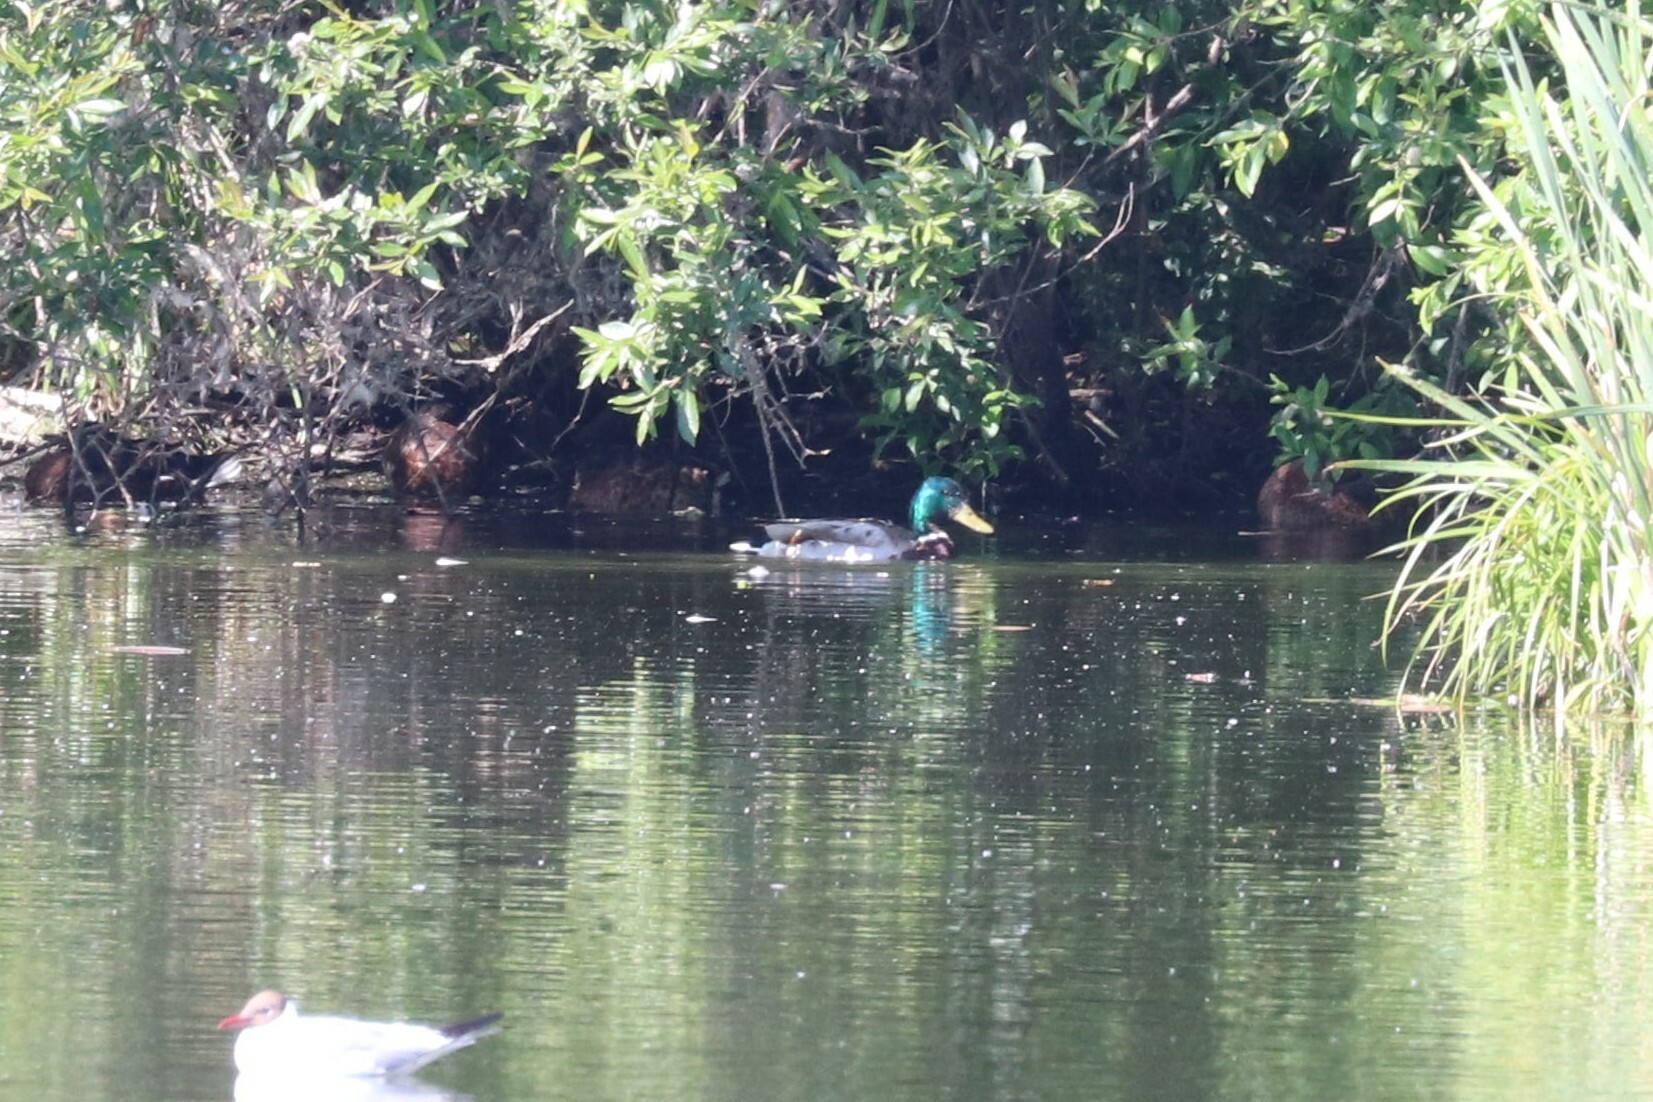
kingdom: Animalia
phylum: Chordata
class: Aves
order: Anseriformes
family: Anatidae
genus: Anas
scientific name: Anas platyrhynchos
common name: Mallard
